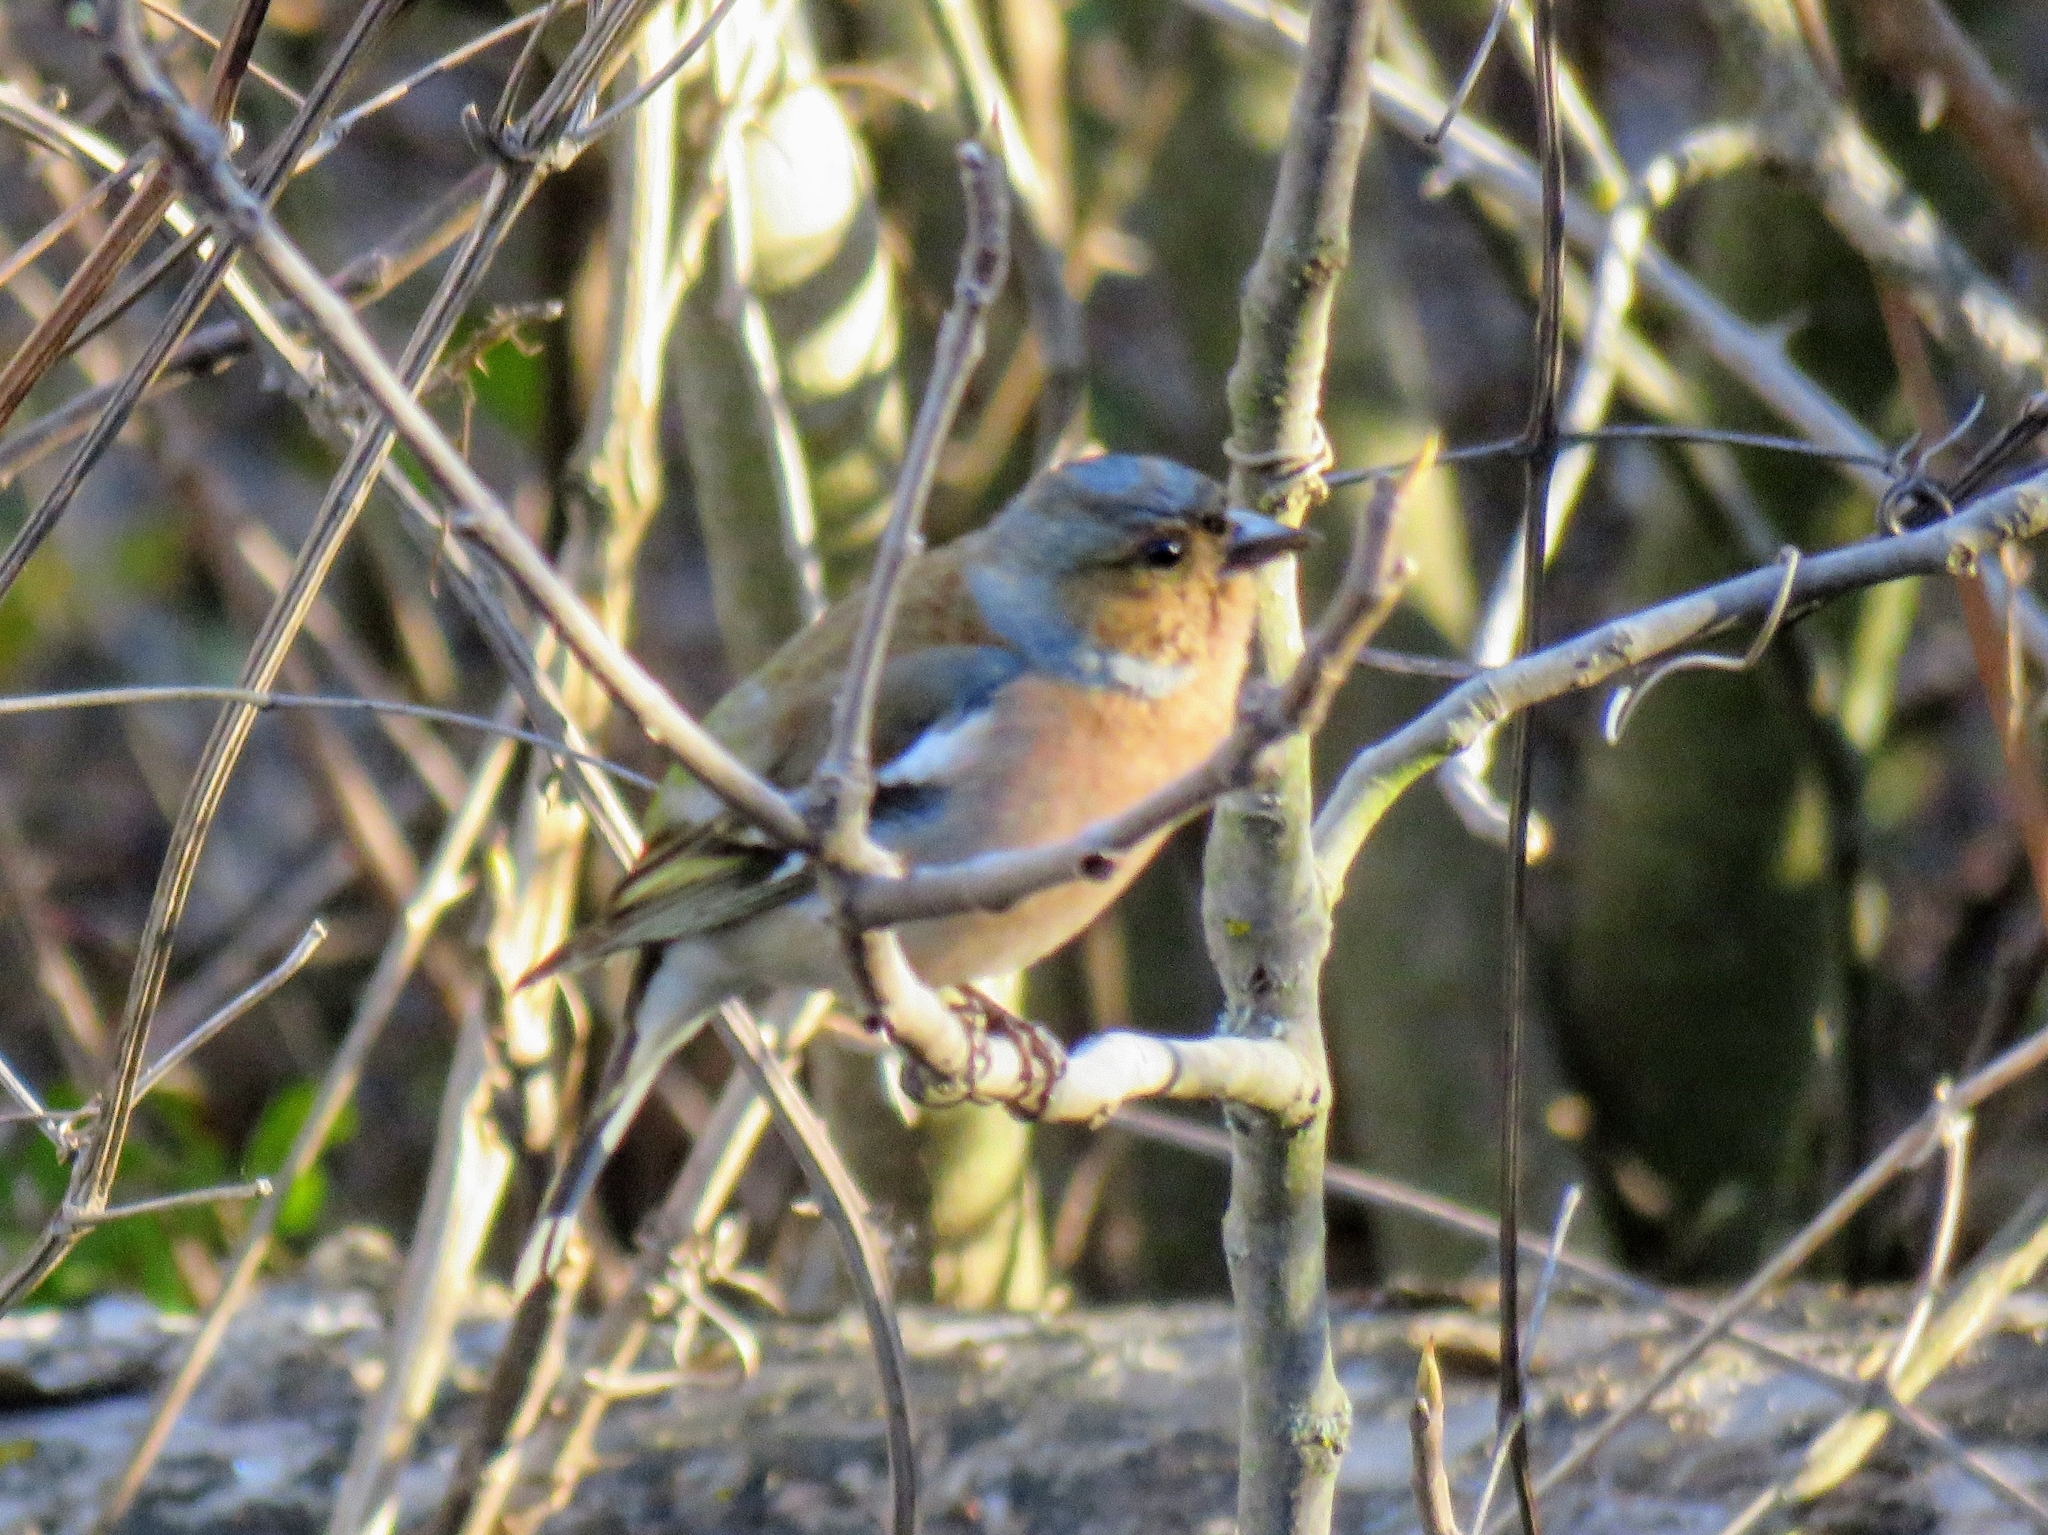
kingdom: Animalia
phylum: Chordata
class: Aves
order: Passeriformes
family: Fringillidae
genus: Fringilla
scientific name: Fringilla coelebs
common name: Common chaffinch
